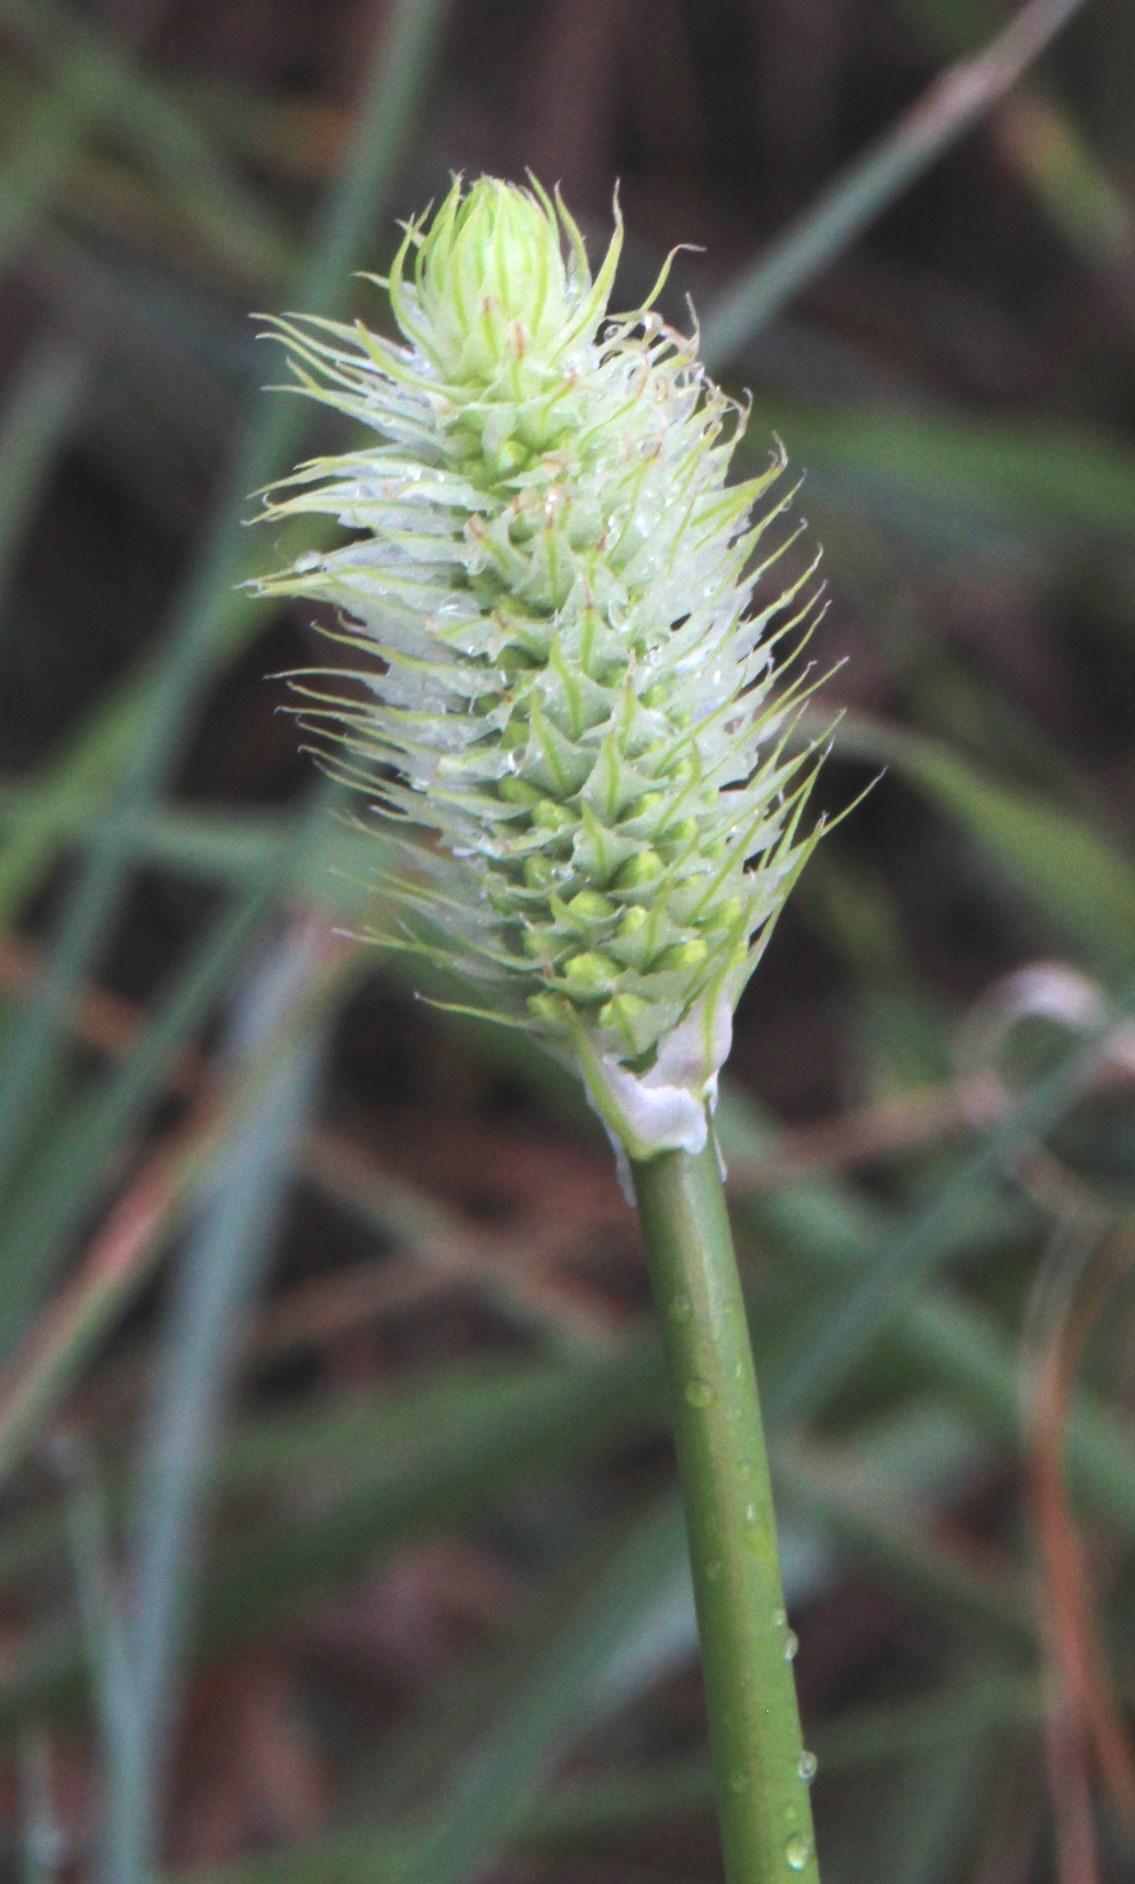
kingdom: Plantae
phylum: Tracheophyta
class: Liliopsida
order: Asparagales
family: Asphodelaceae
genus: Bulbine
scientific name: Bulbine narcissifolia
